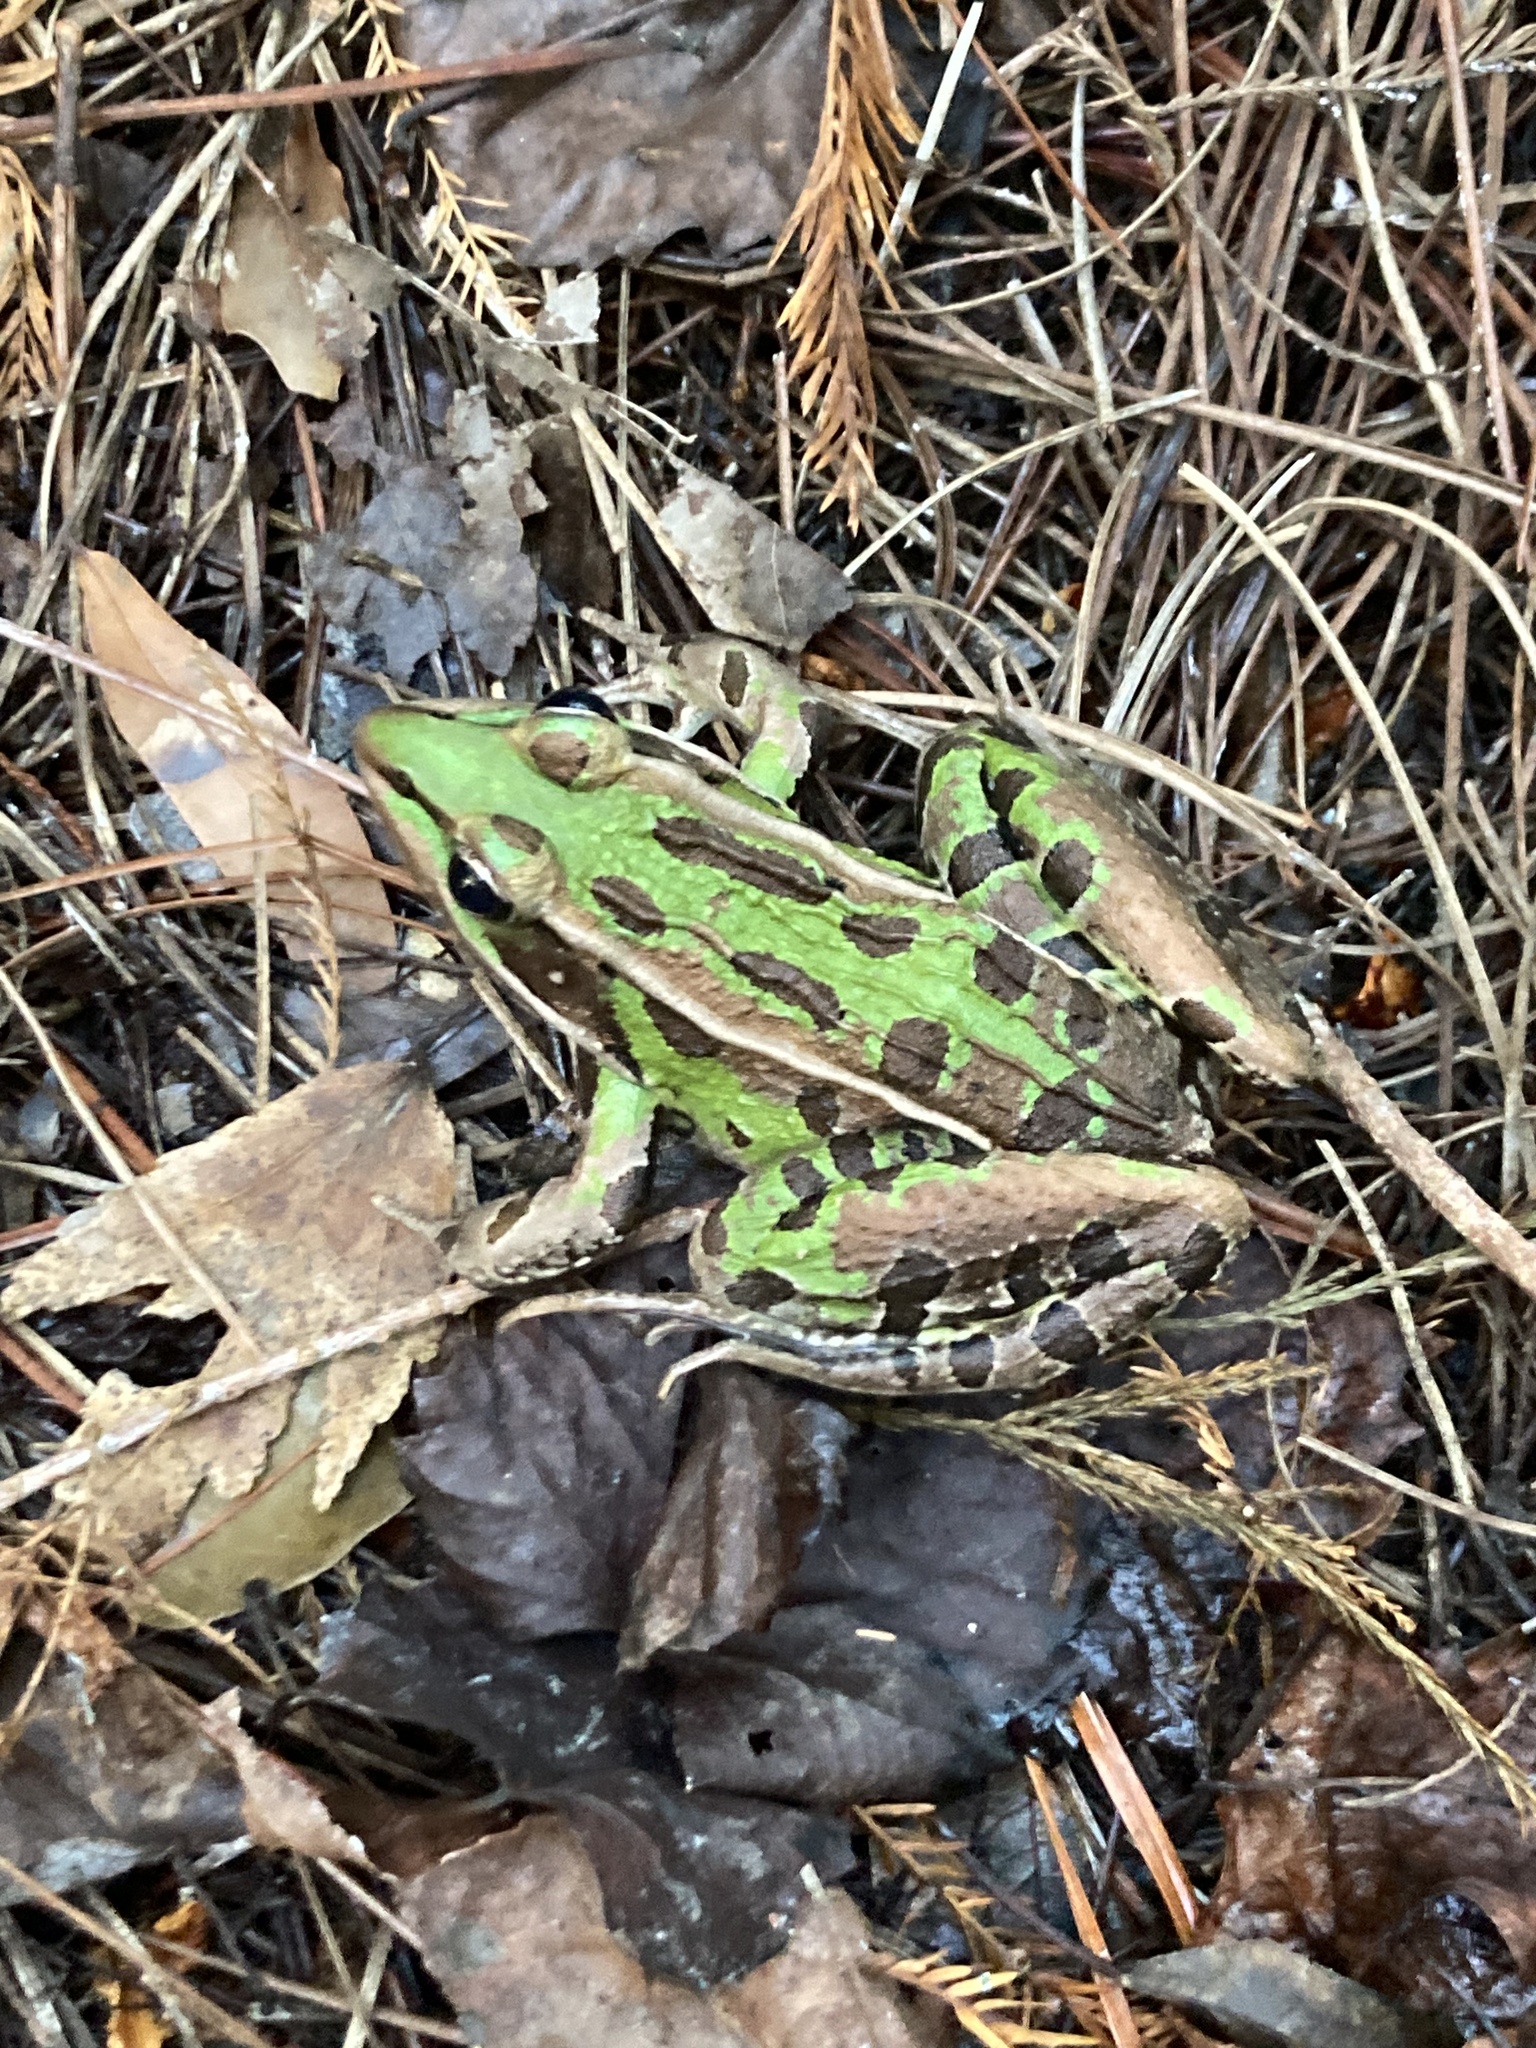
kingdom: Animalia
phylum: Chordata
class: Amphibia
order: Anura
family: Ranidae
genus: Lithobates
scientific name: Lithobates sphenocephalus
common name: Southern leopard frog
